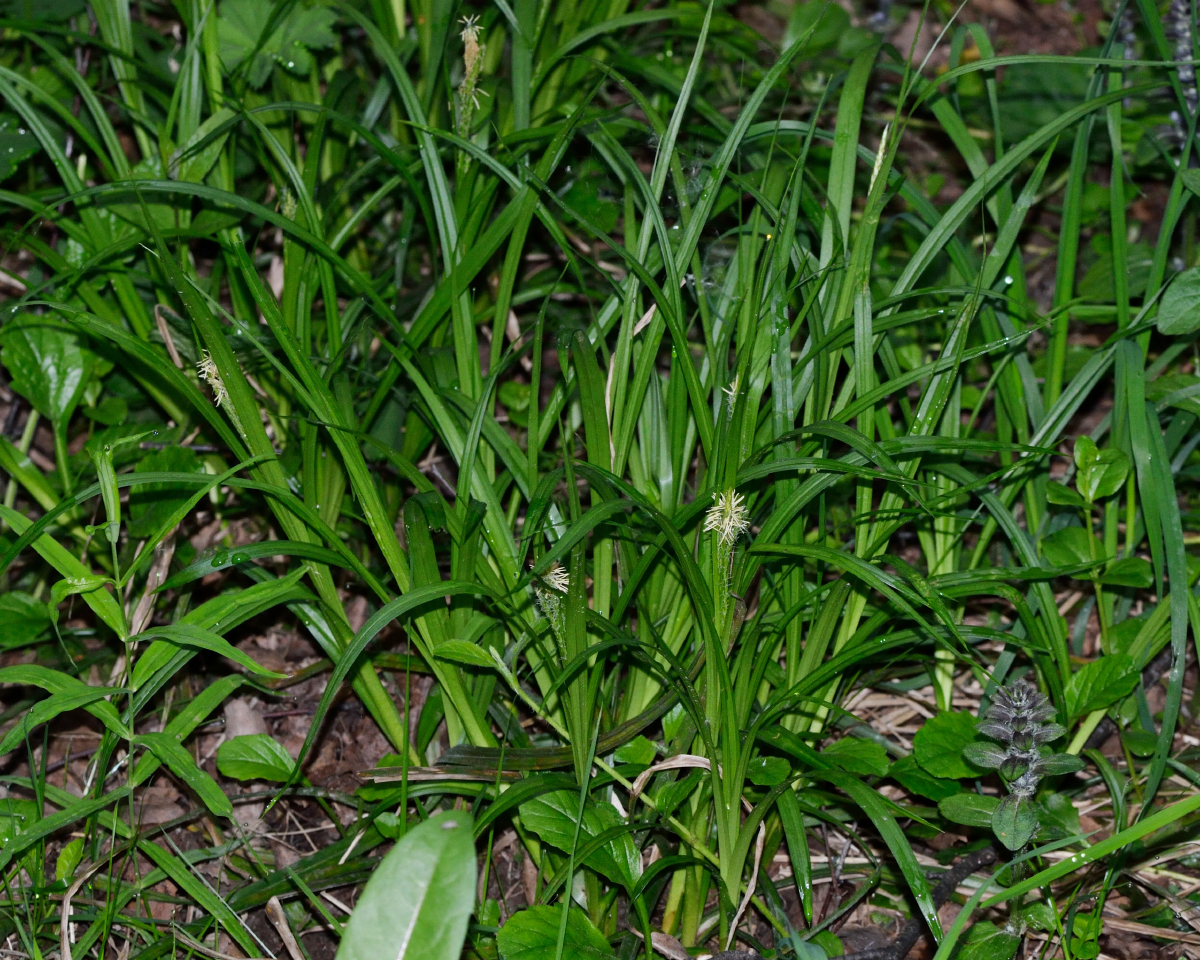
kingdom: Plantae
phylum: Tracheophyta
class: Liliopsida
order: Poales
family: Cyperaceae
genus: Carex
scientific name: Carex sylvatica
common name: Wood-sedge
